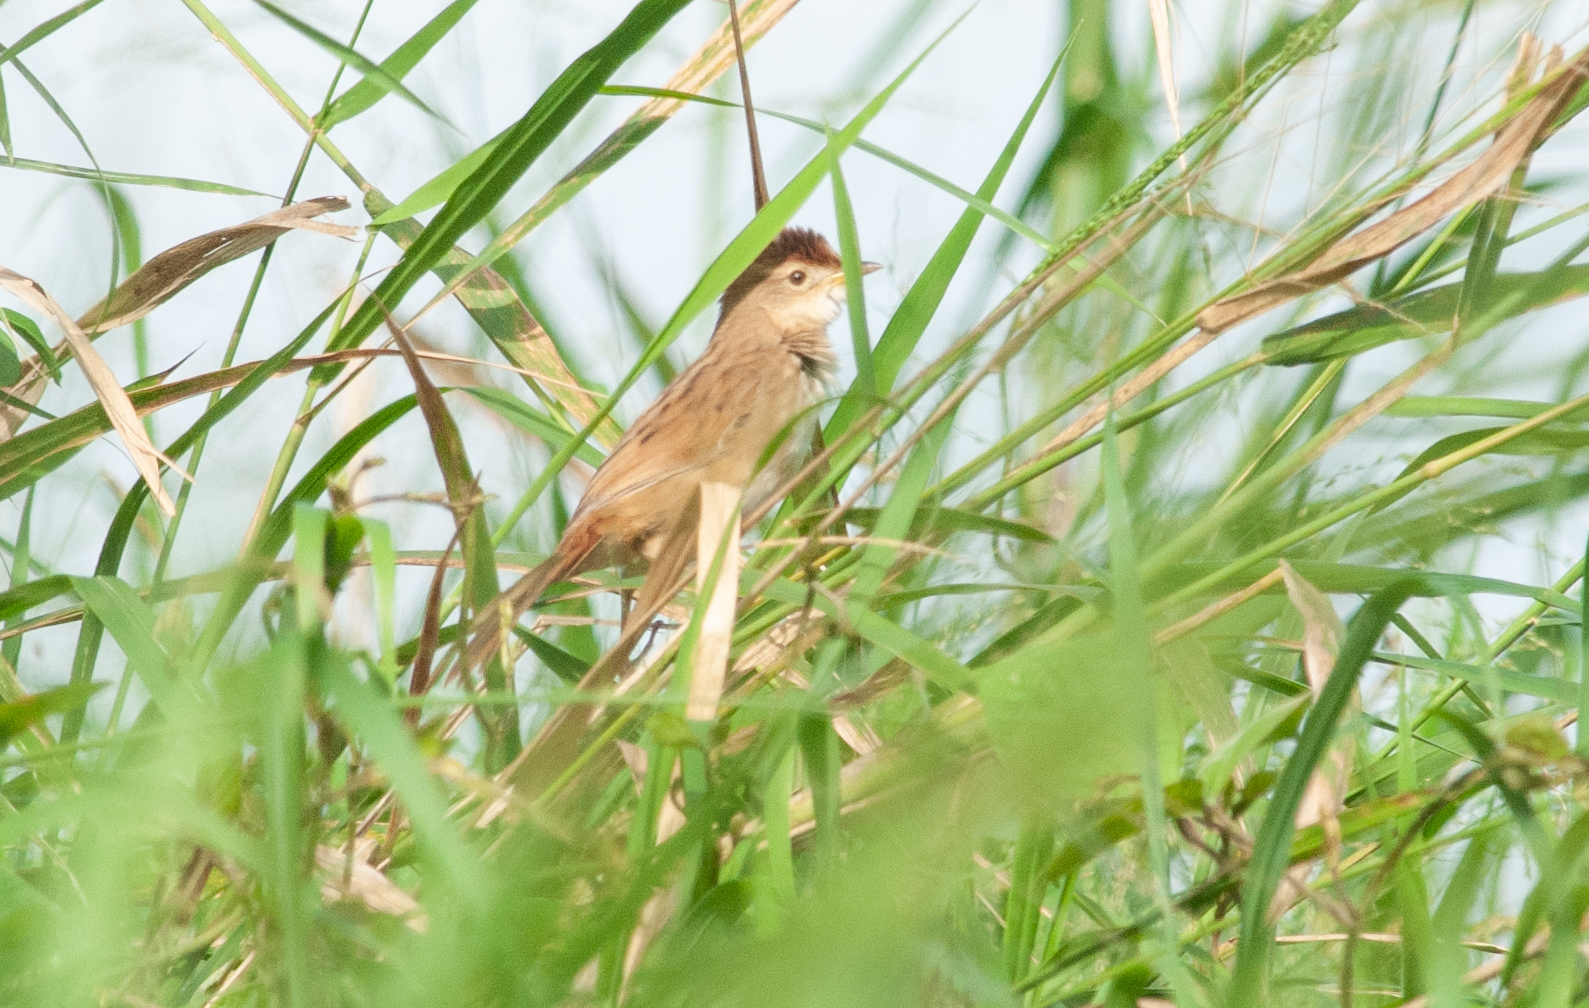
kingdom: Animalia
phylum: Chordata
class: Aves
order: Passeriformes
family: Locustellidae
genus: Megalurus
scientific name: Megalurus timoriensis
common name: Tawny grassbird
